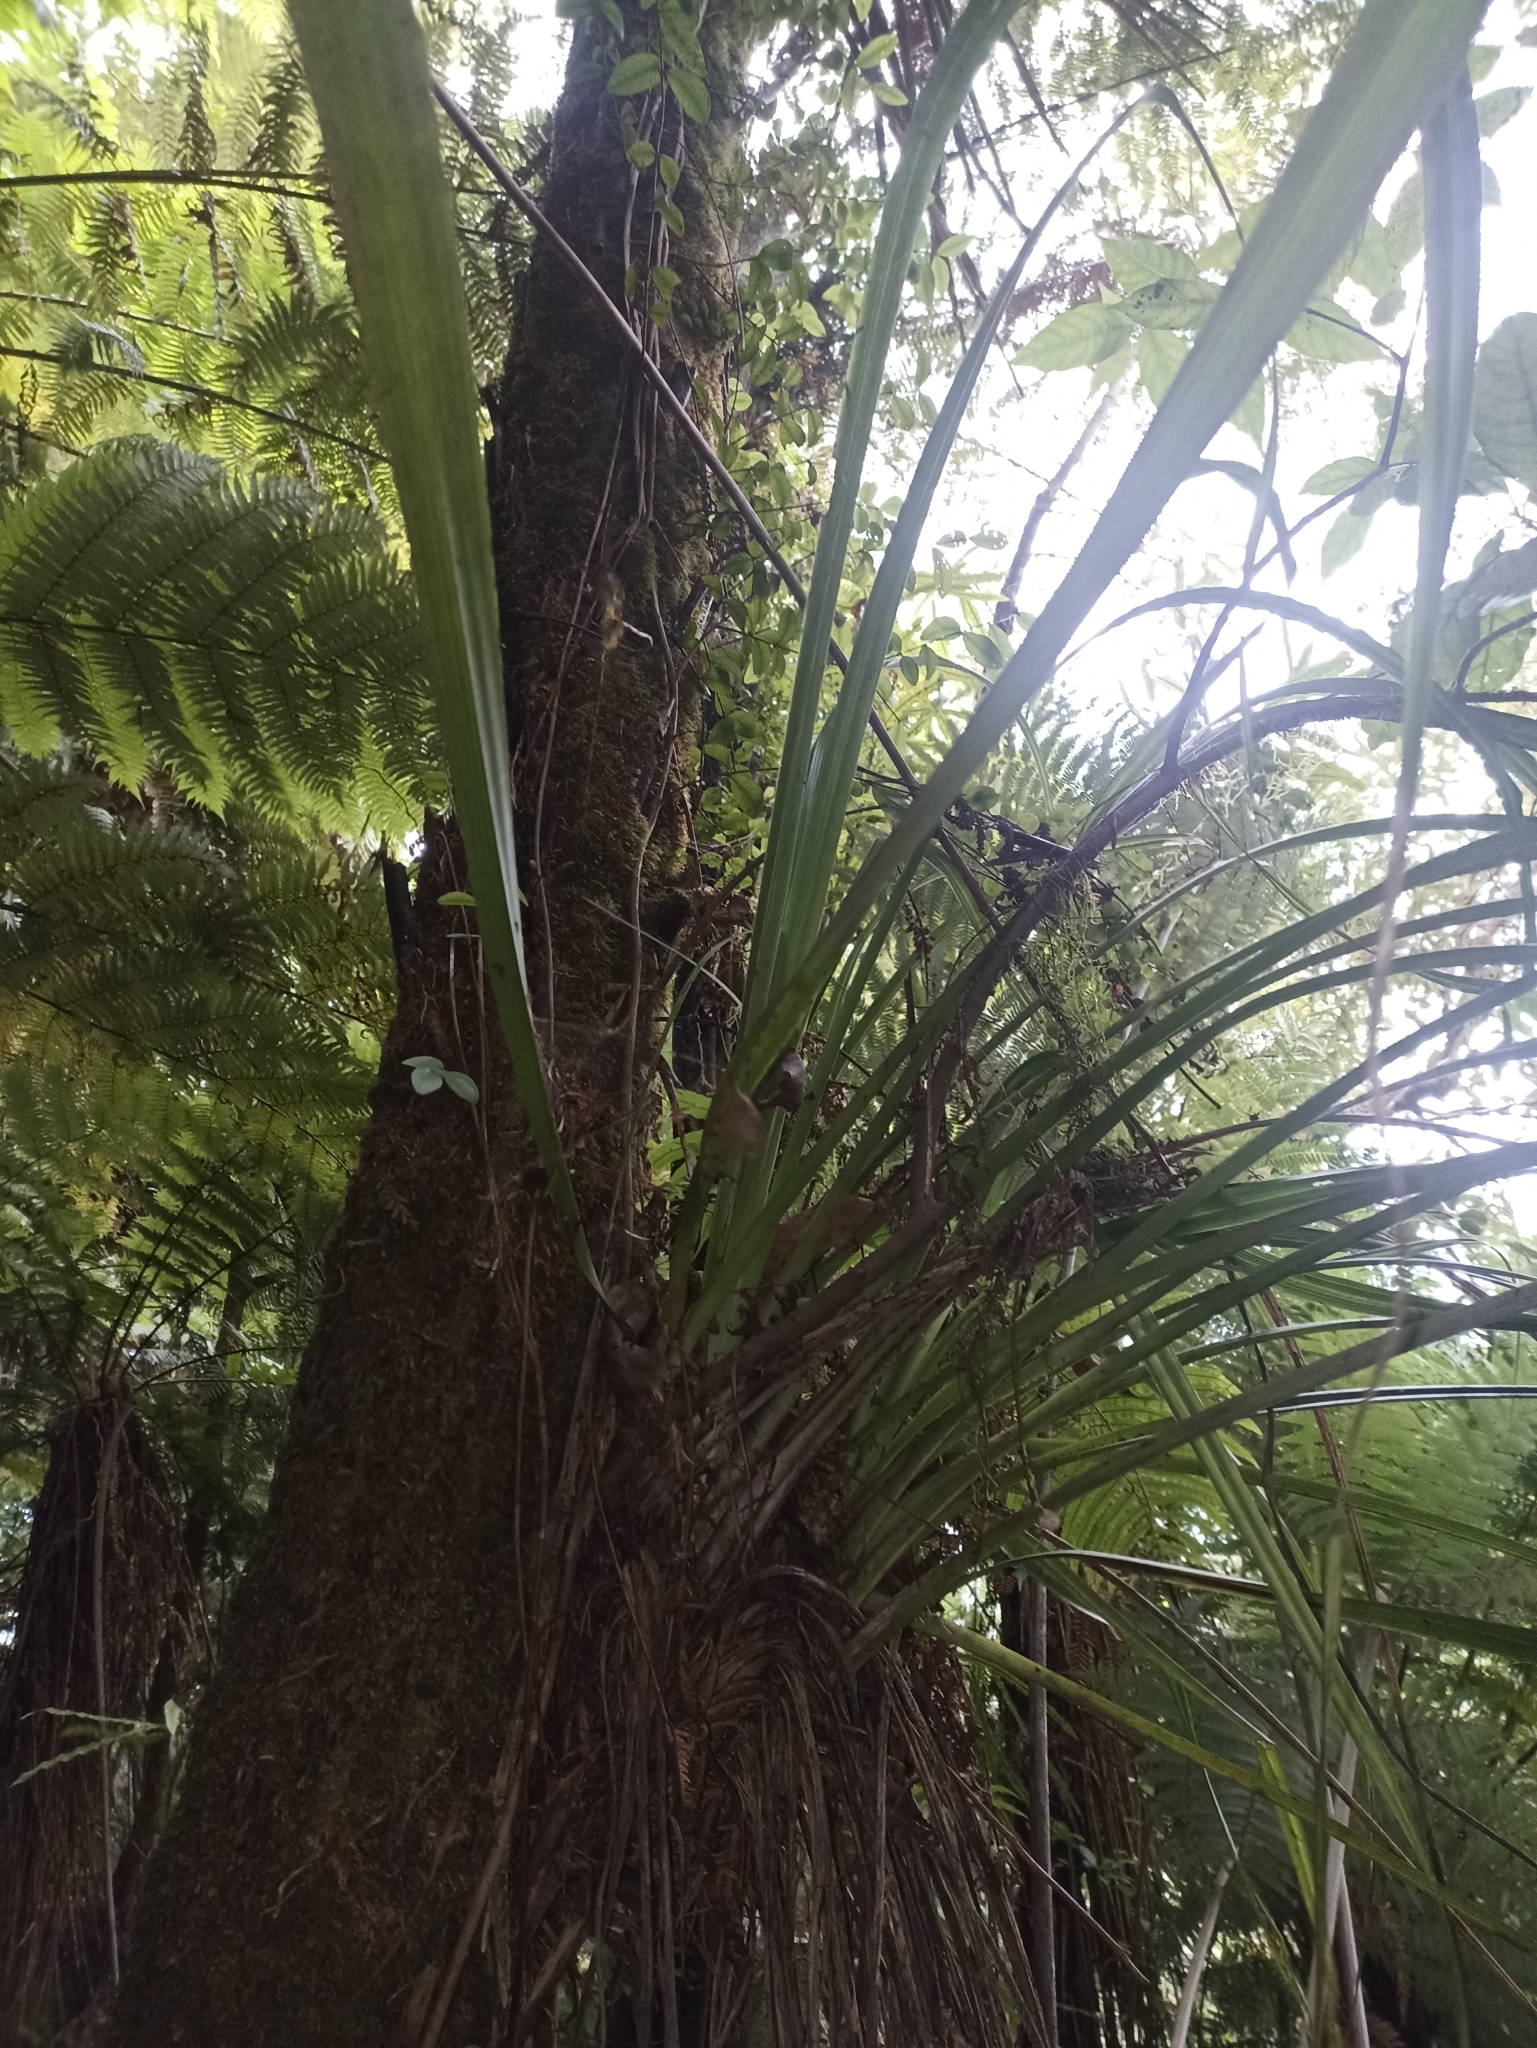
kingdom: Plantae
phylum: Tracheophyta
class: Liliopsida
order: Asparagales
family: Asteliaceae
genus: Astelia
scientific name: Astelia solandri
